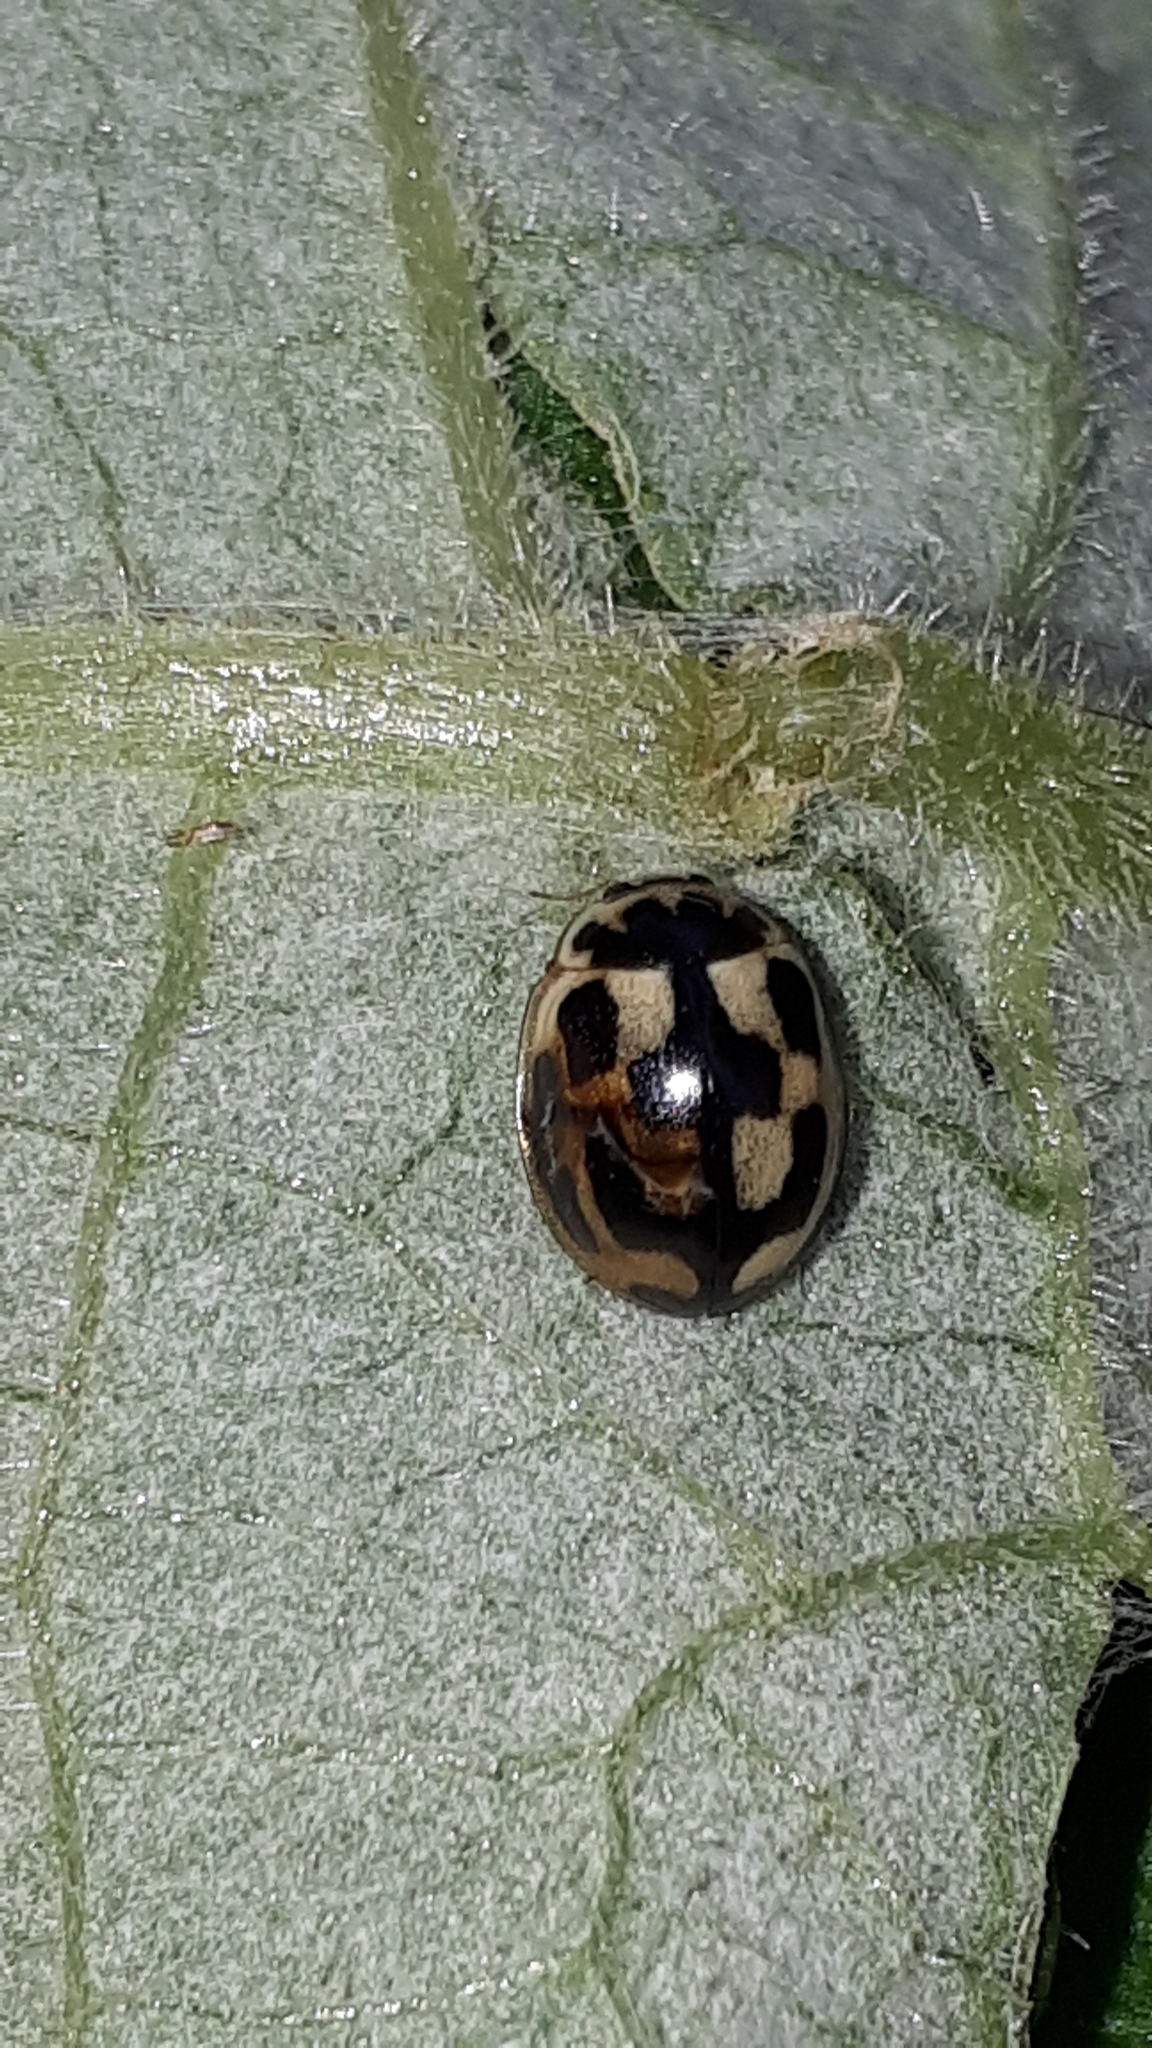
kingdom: Animalia
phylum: Arthropoda
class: Insecta
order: Coleoptera
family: Coccinellidae
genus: Propylaea
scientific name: Propylaea quatuordecimpunctata
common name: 14-spotted ladybird beetle
